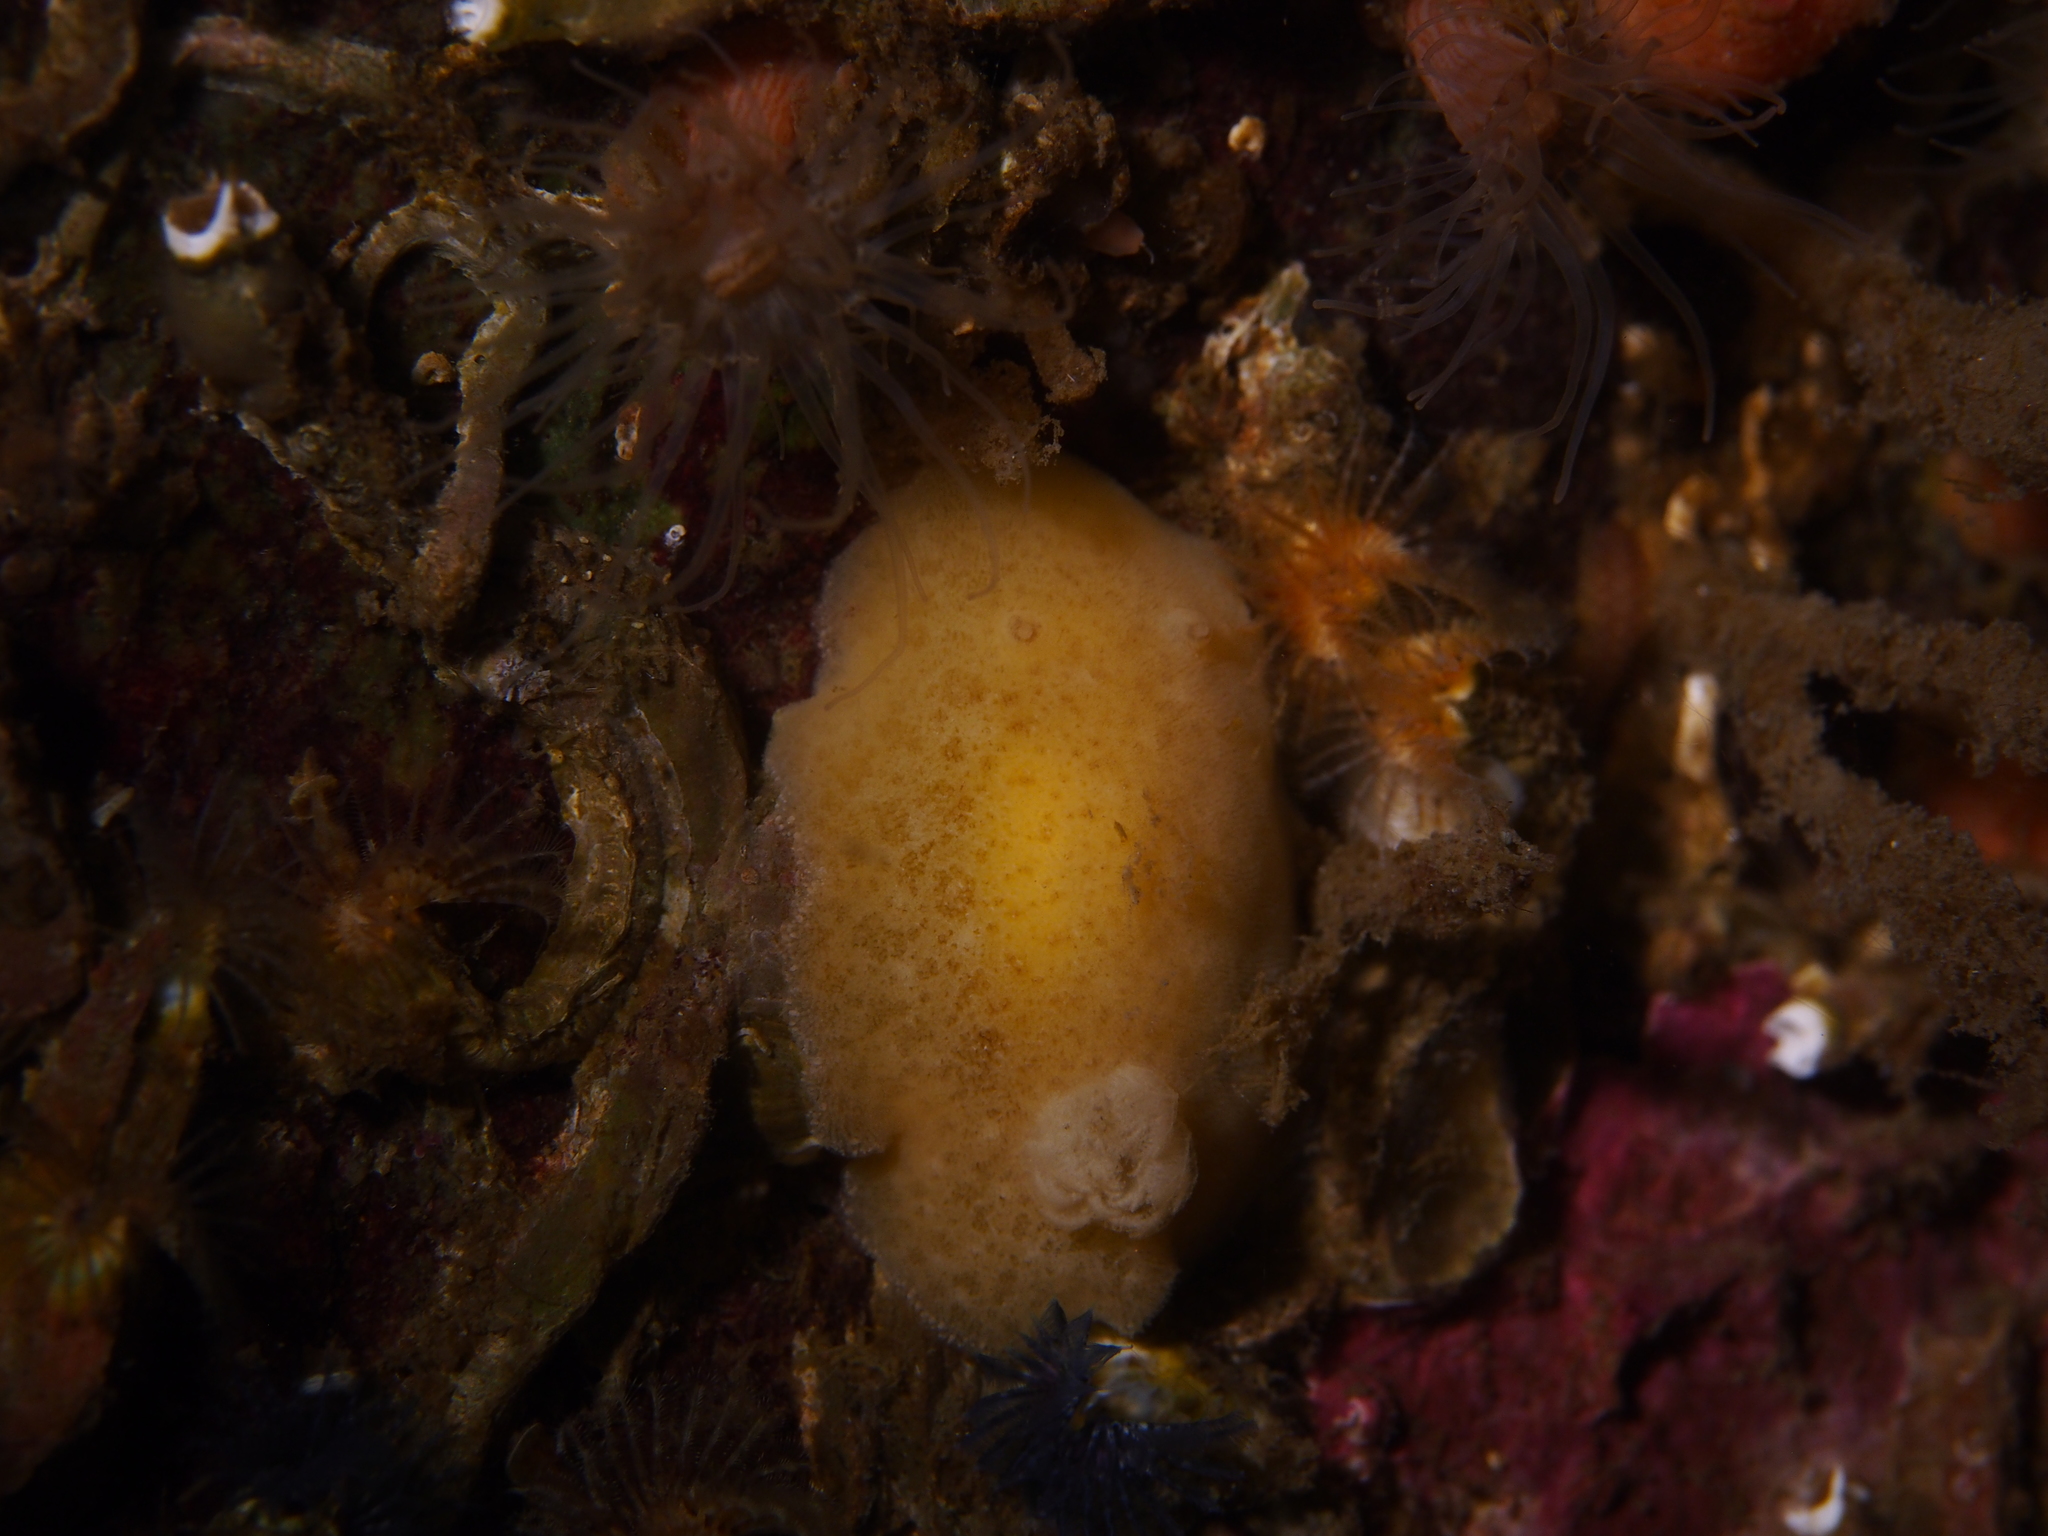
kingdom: Animalia
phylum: Mollusca
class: Gastropoda
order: Nudibranchia
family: Discodorididae
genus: Jorunna
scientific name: Jorunna tomentosa
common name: Grey sea slug
